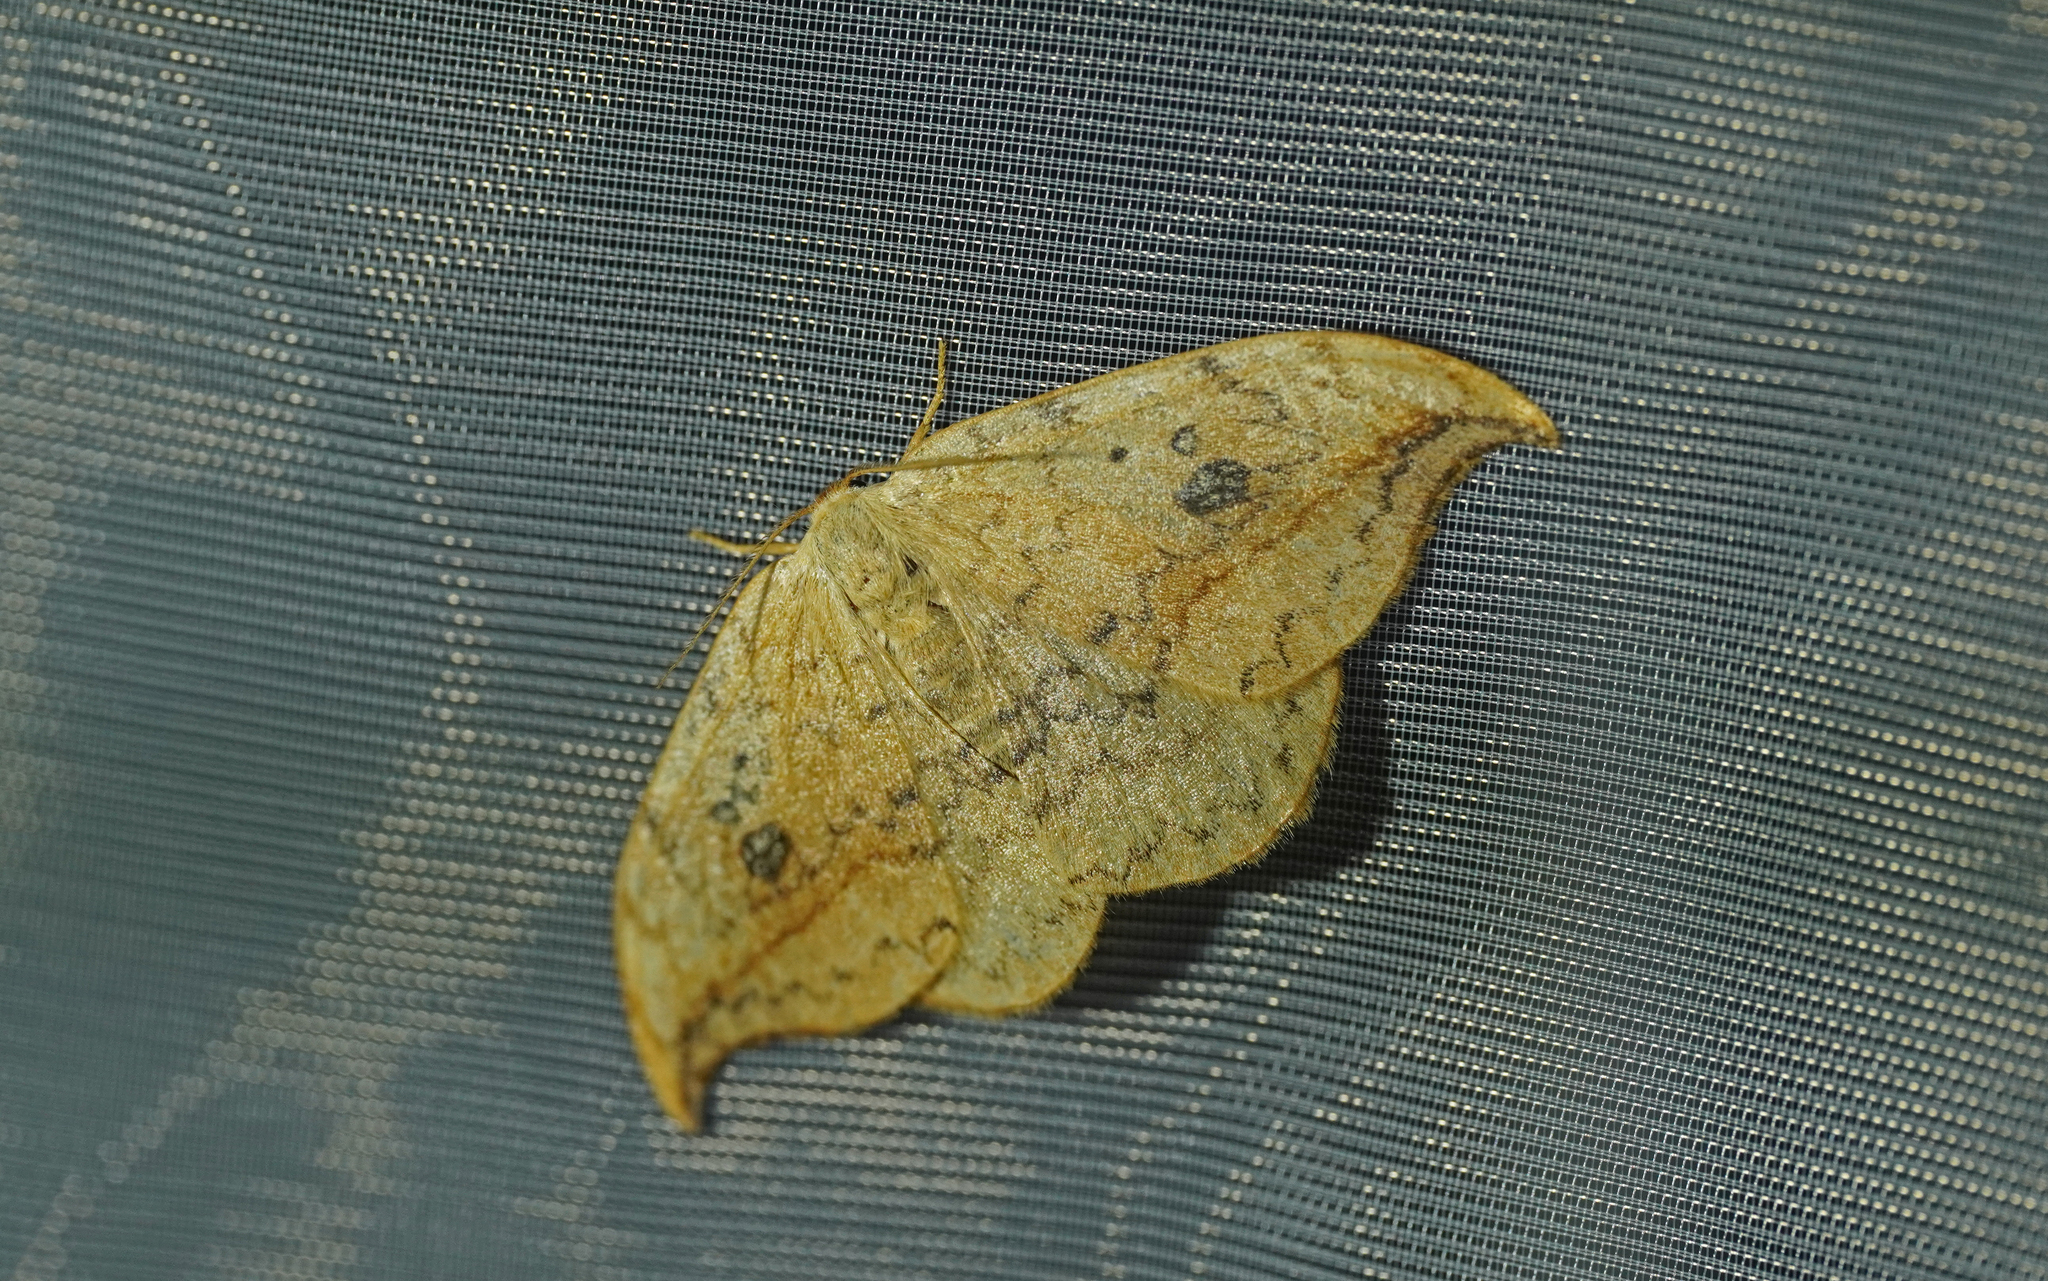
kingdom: Animalia
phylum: Arthropoda
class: Insecta
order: Lepidoptera
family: Drepanidae
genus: Drepana
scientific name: Drepana falcataria
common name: Pebble hook-tip
